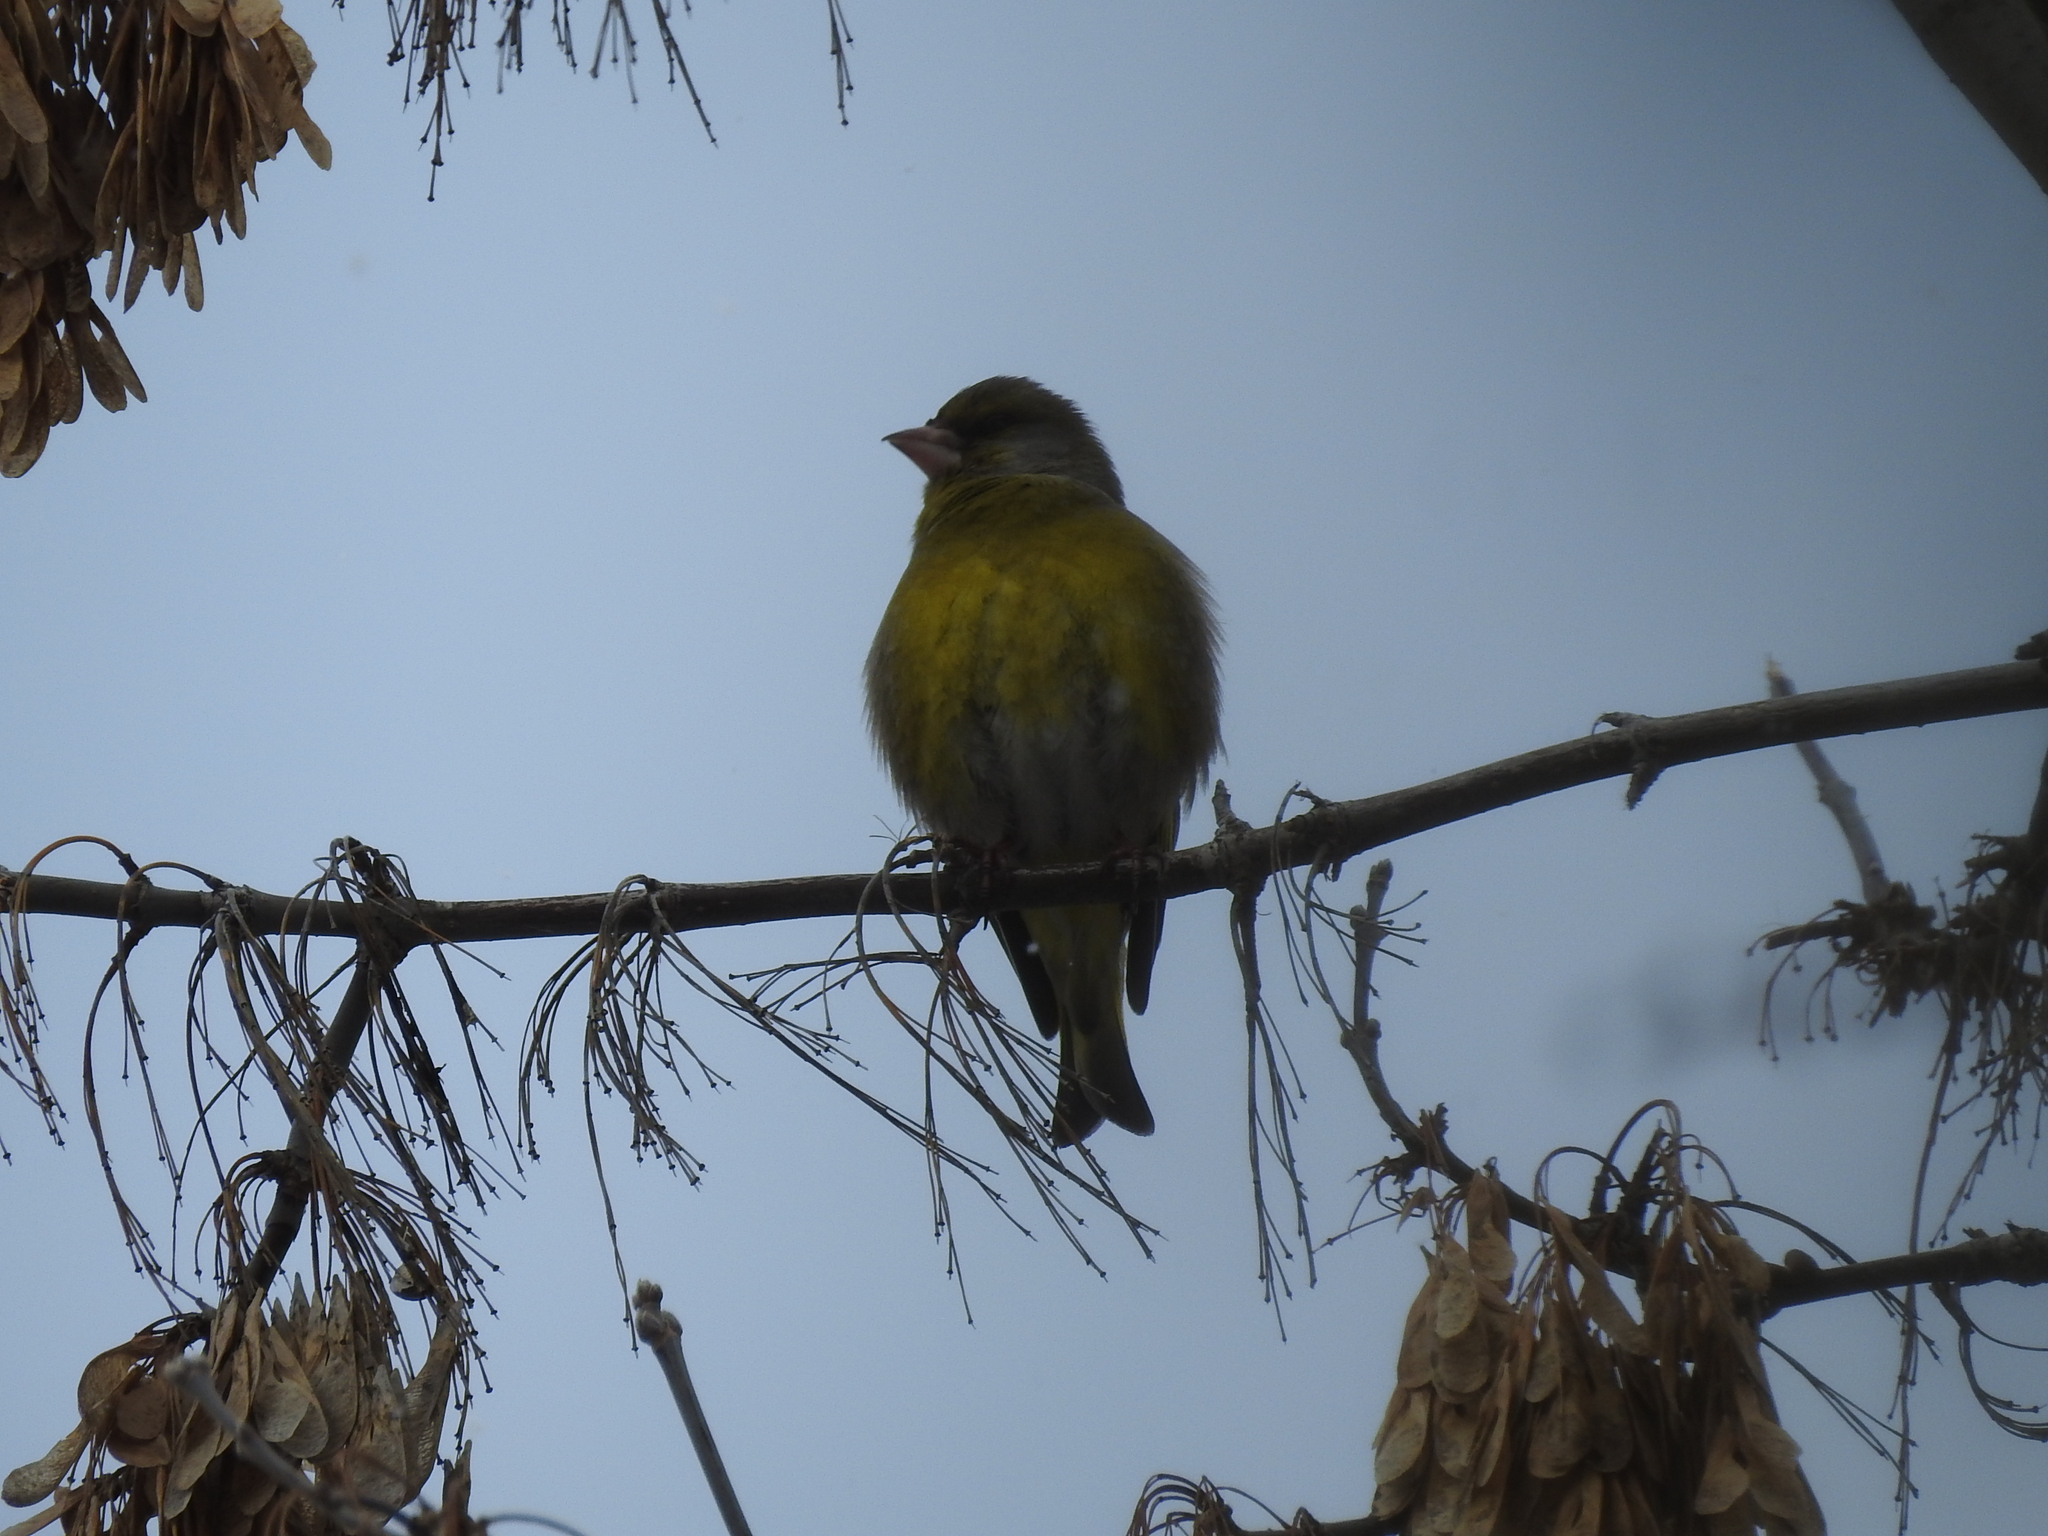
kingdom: Plantae
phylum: Tracheophyta
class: Liliopsida
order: Poales
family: Poaceae
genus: Chloris
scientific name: Chloris chloris
